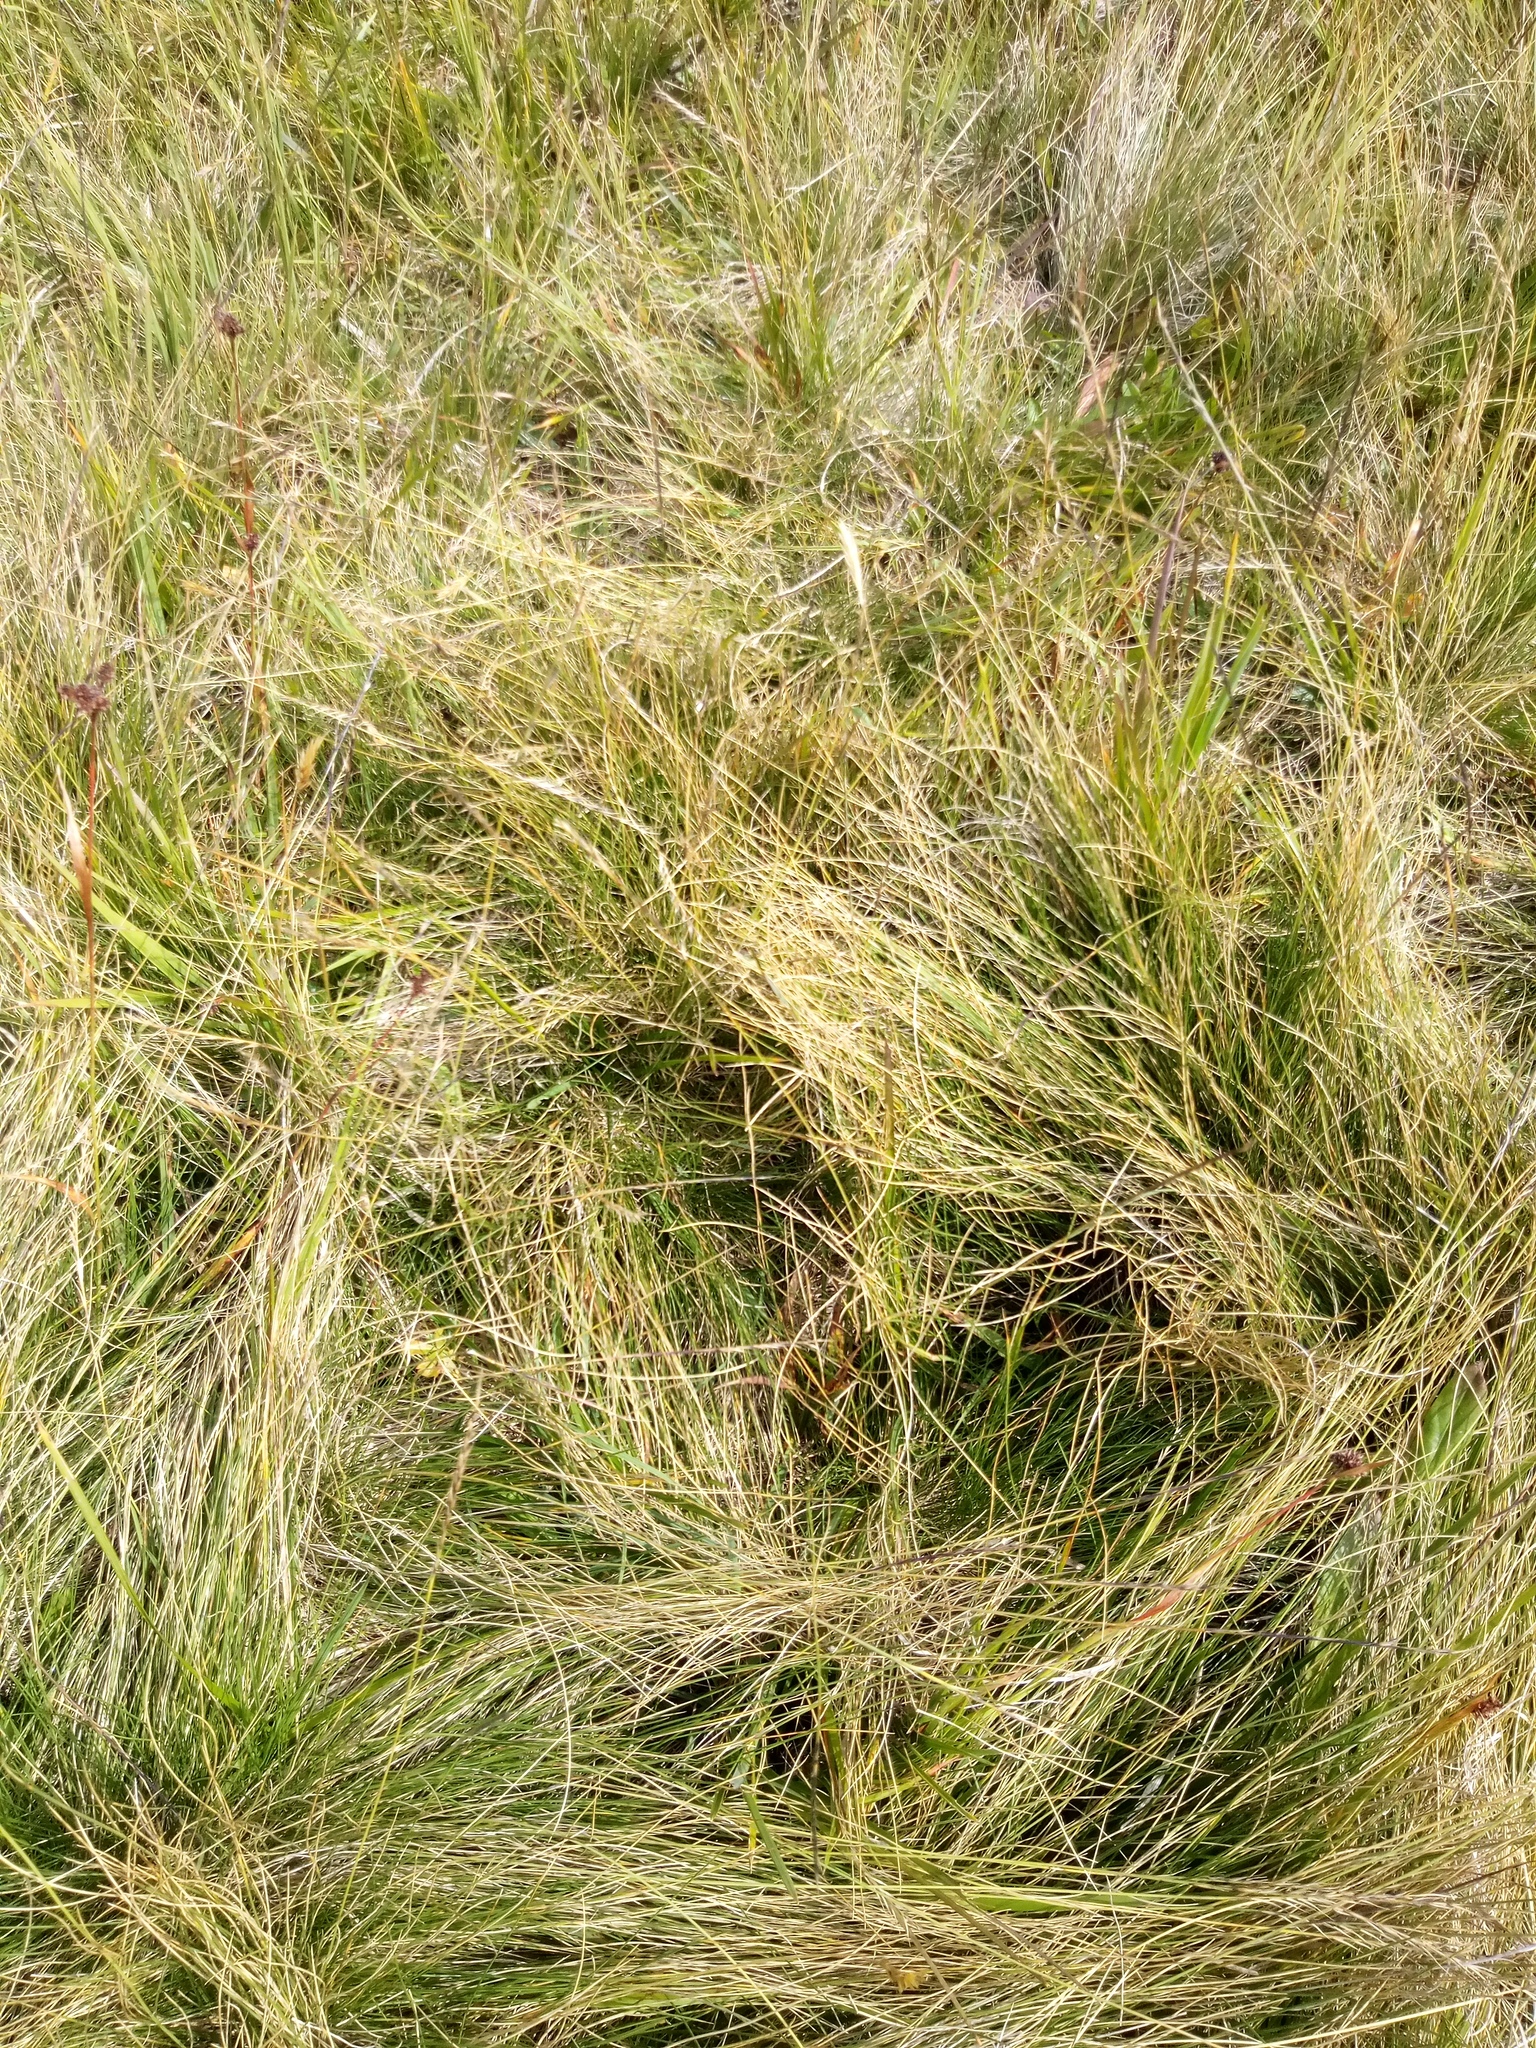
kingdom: Plantae
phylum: Tracheophyta
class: Liliopsida
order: Poales
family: Poaceae
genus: Nardus
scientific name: Nardus stricta
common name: Mat-grass
